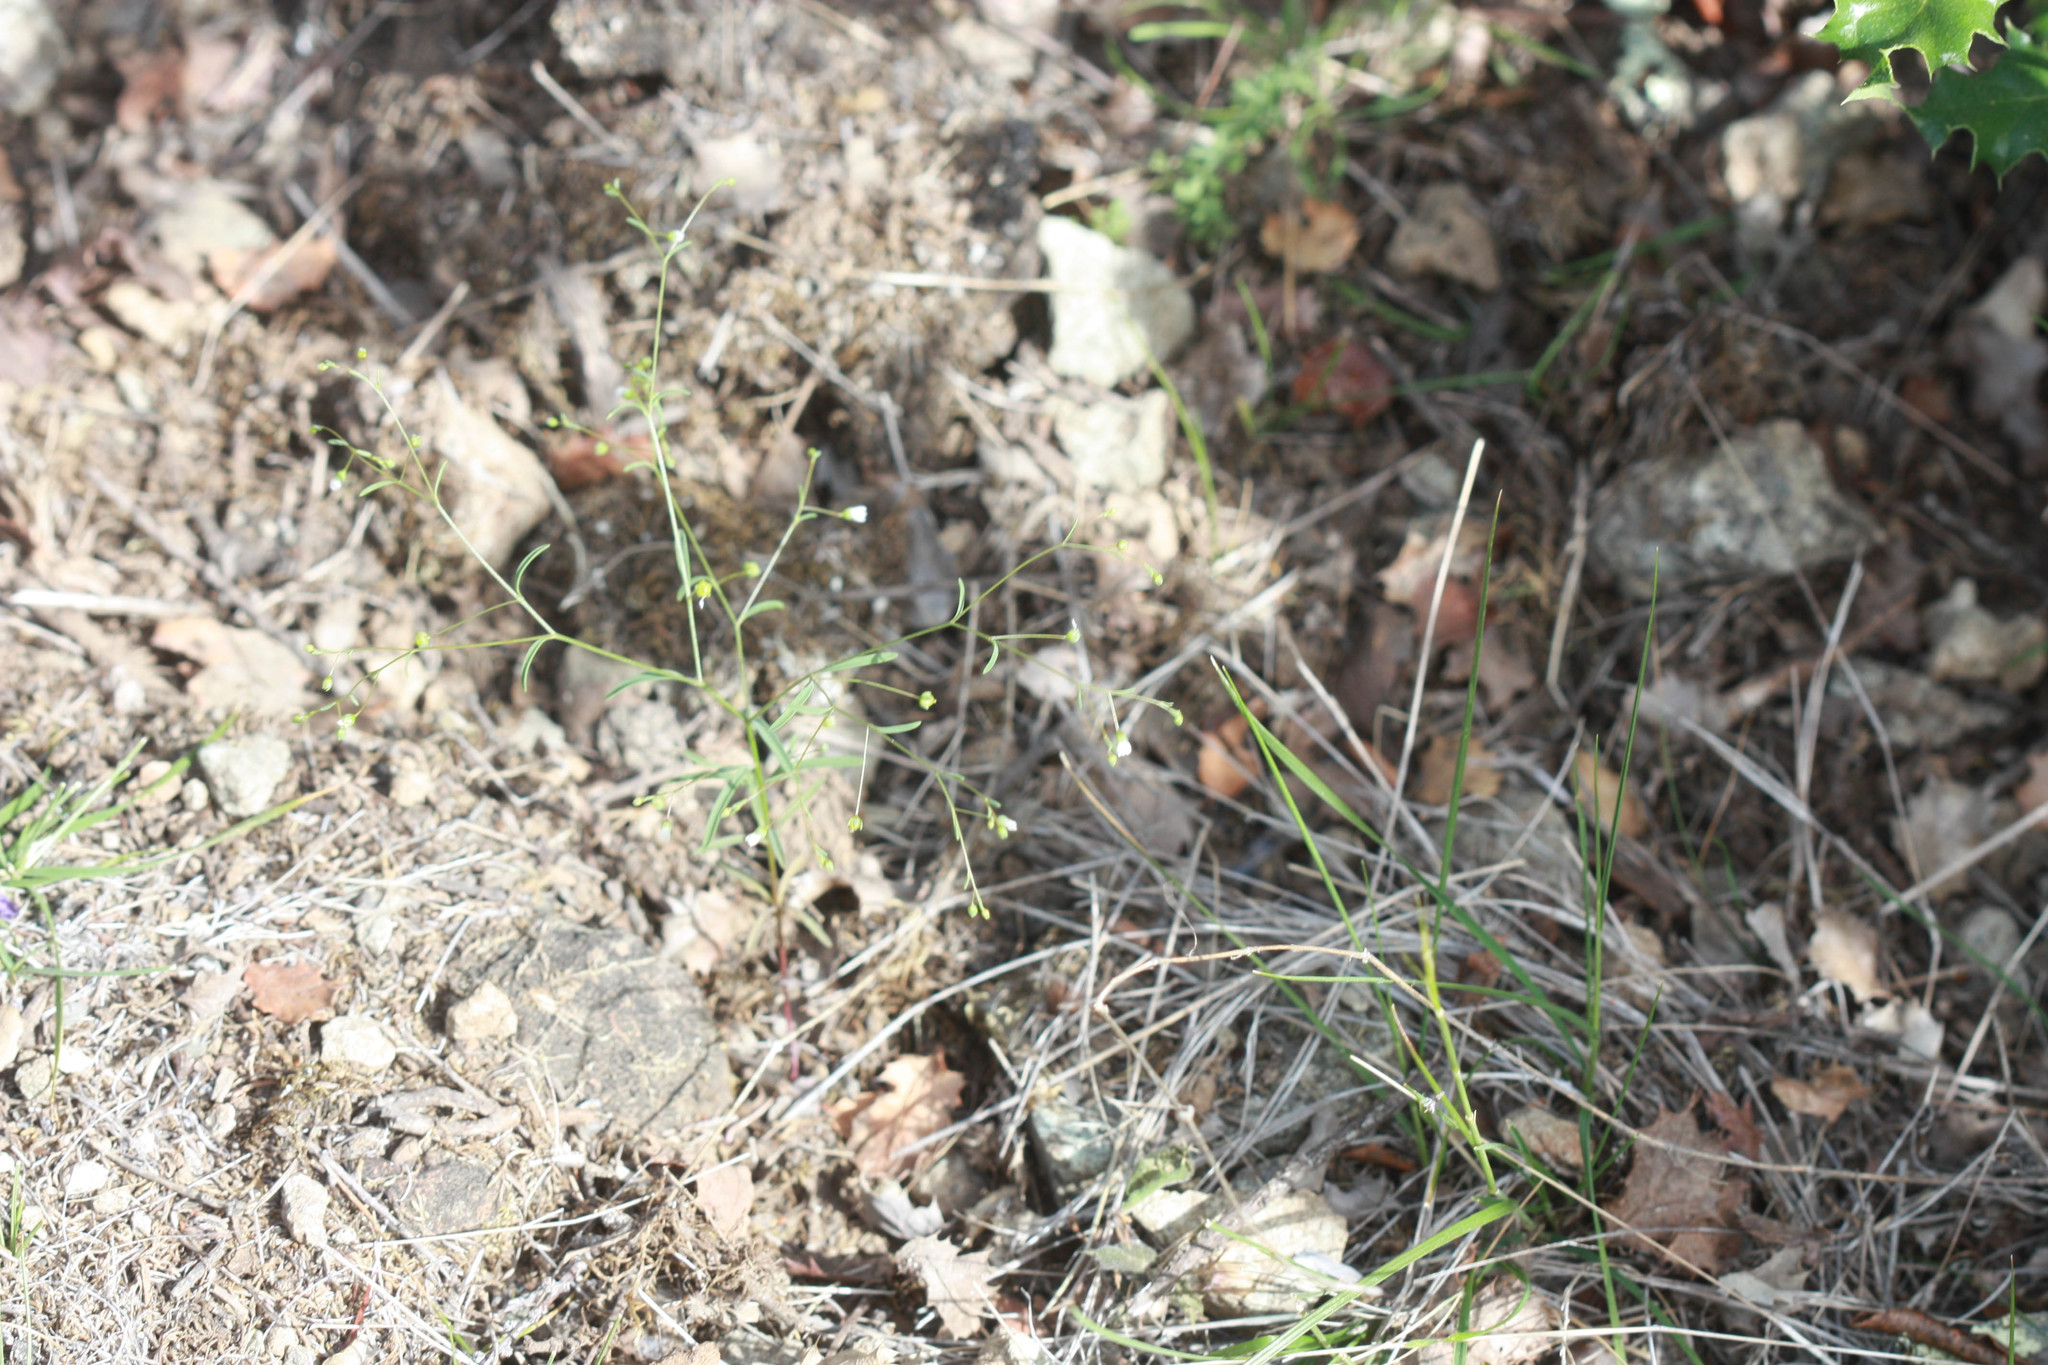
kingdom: Plantae
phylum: Tracheophyta
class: Magnoliopsida
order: Malpighiales
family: Linaceae
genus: Hesperolinon
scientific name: Hesperolinon micranthum
